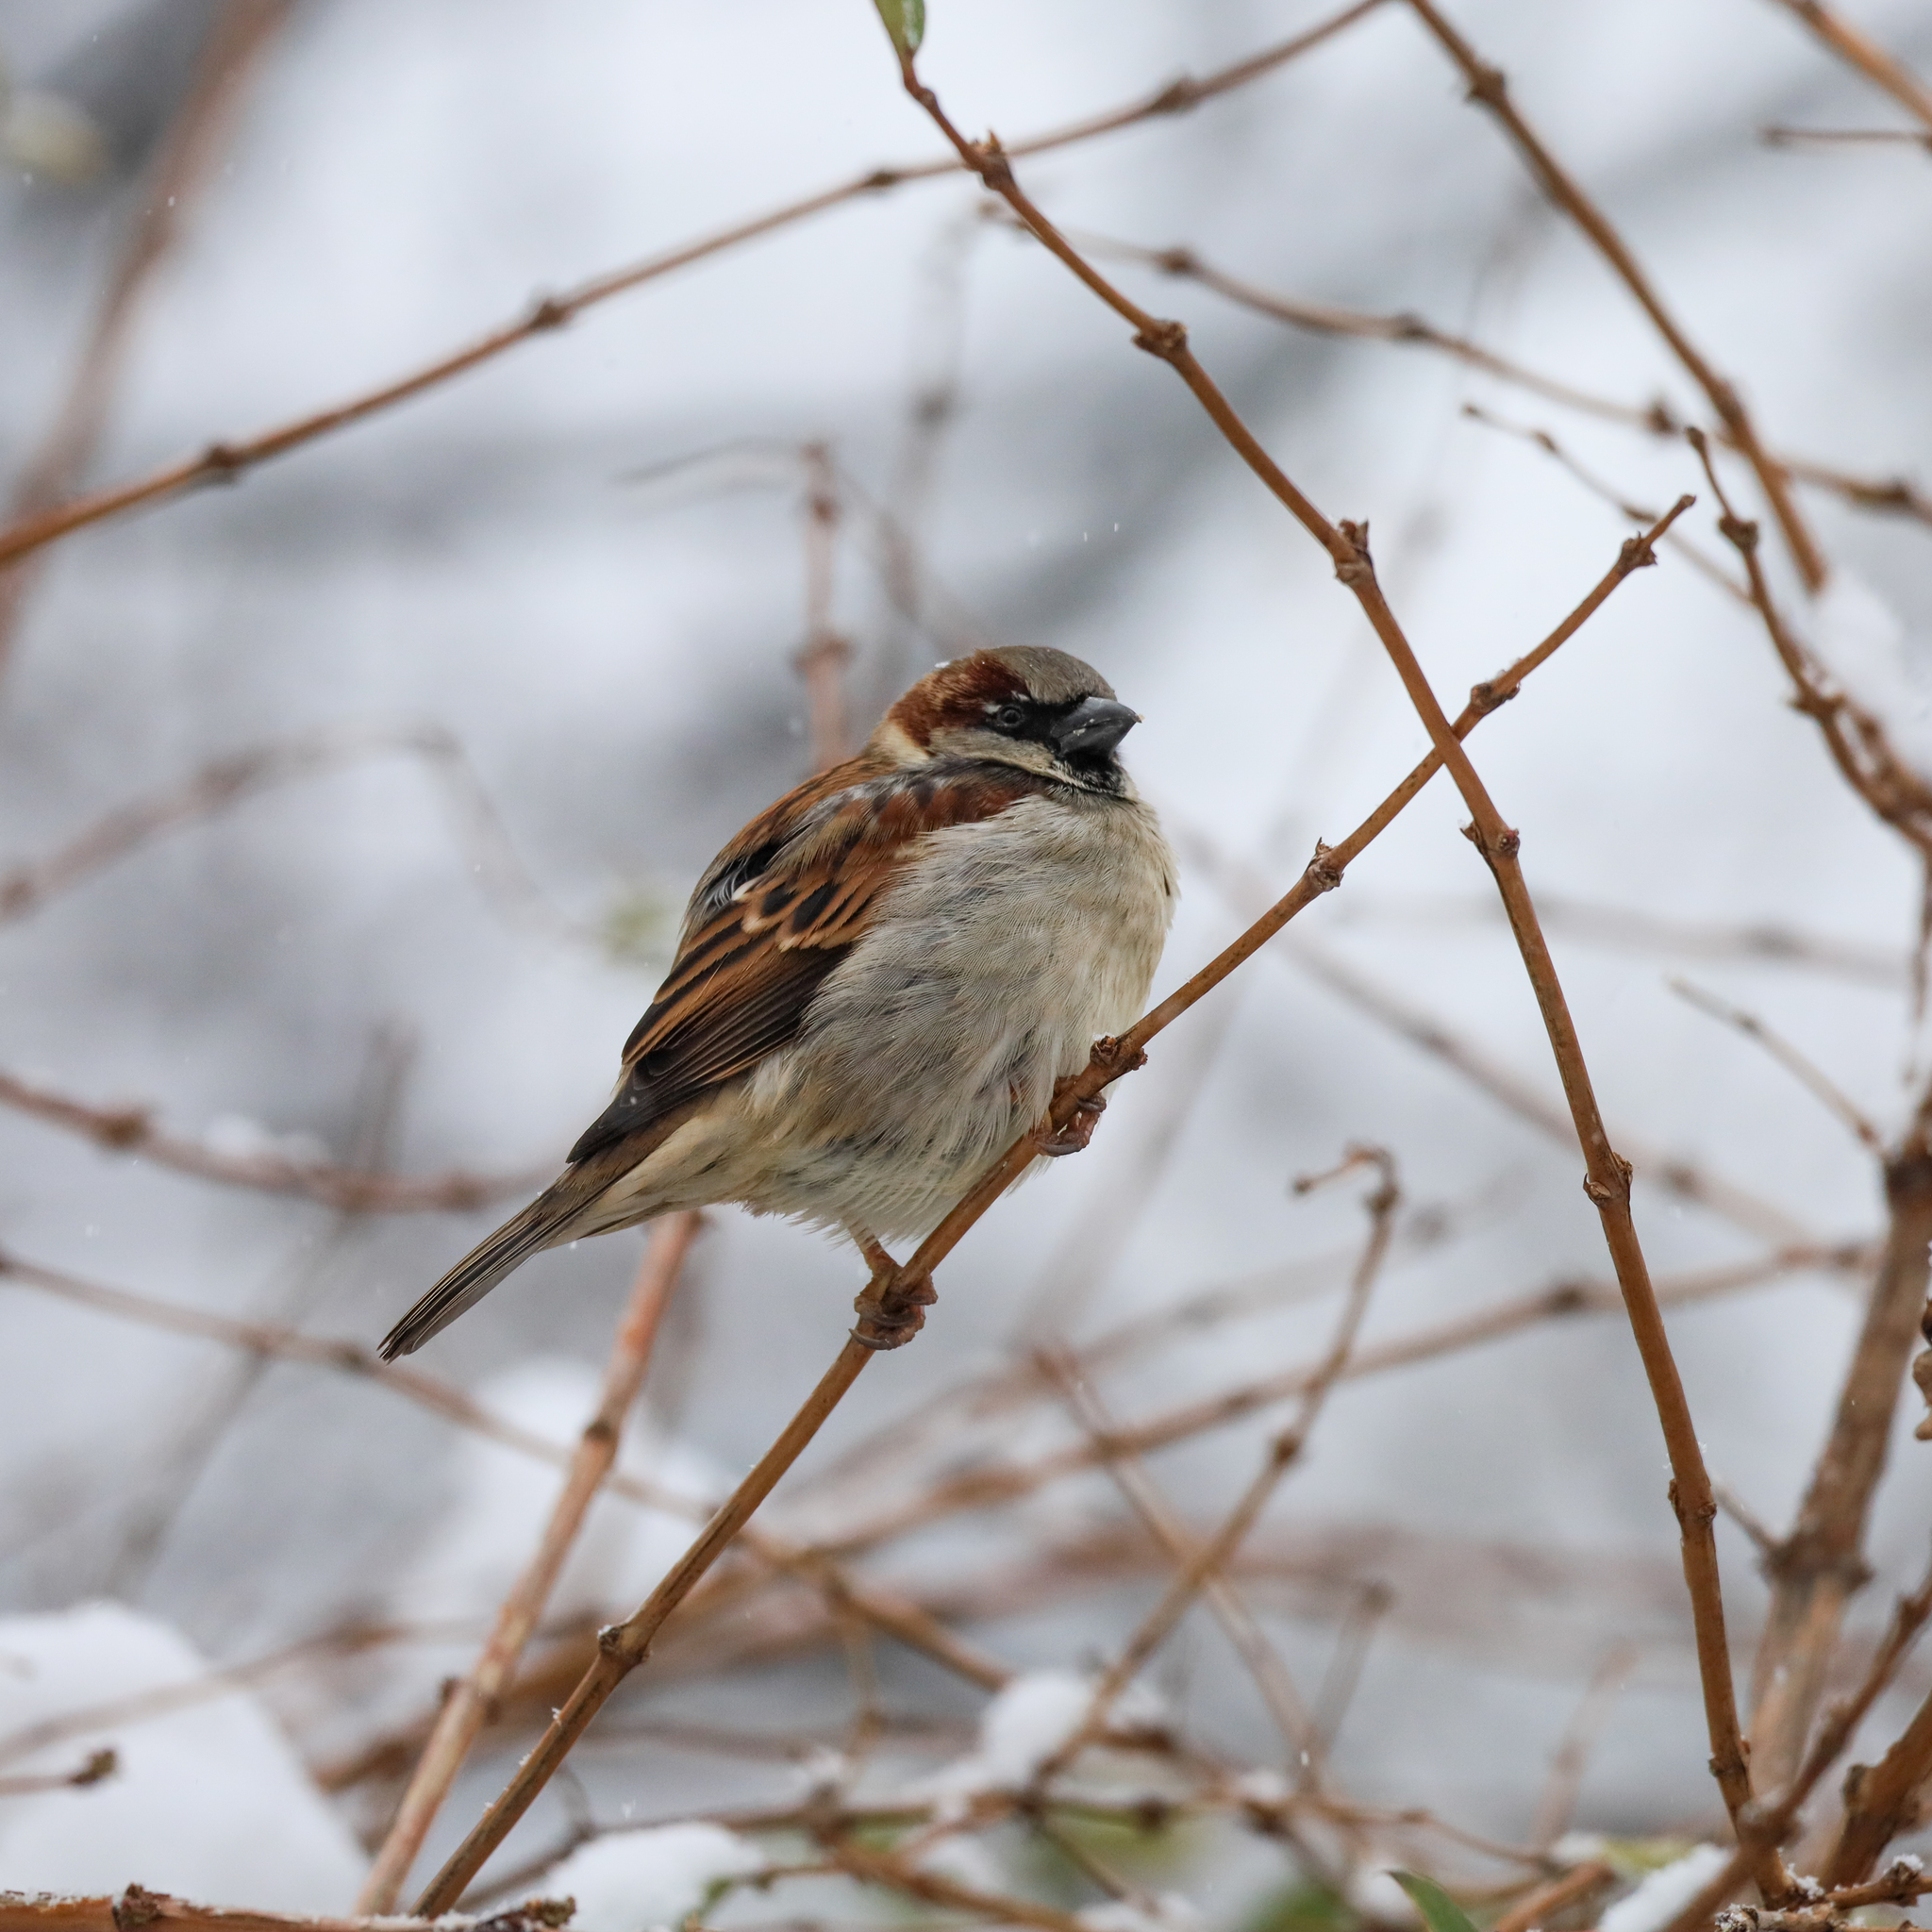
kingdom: Animalia
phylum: Chordata
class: Aves
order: Passeriformes
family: Passeridae
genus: Passer
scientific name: Passer domesticus
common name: House sparrow
